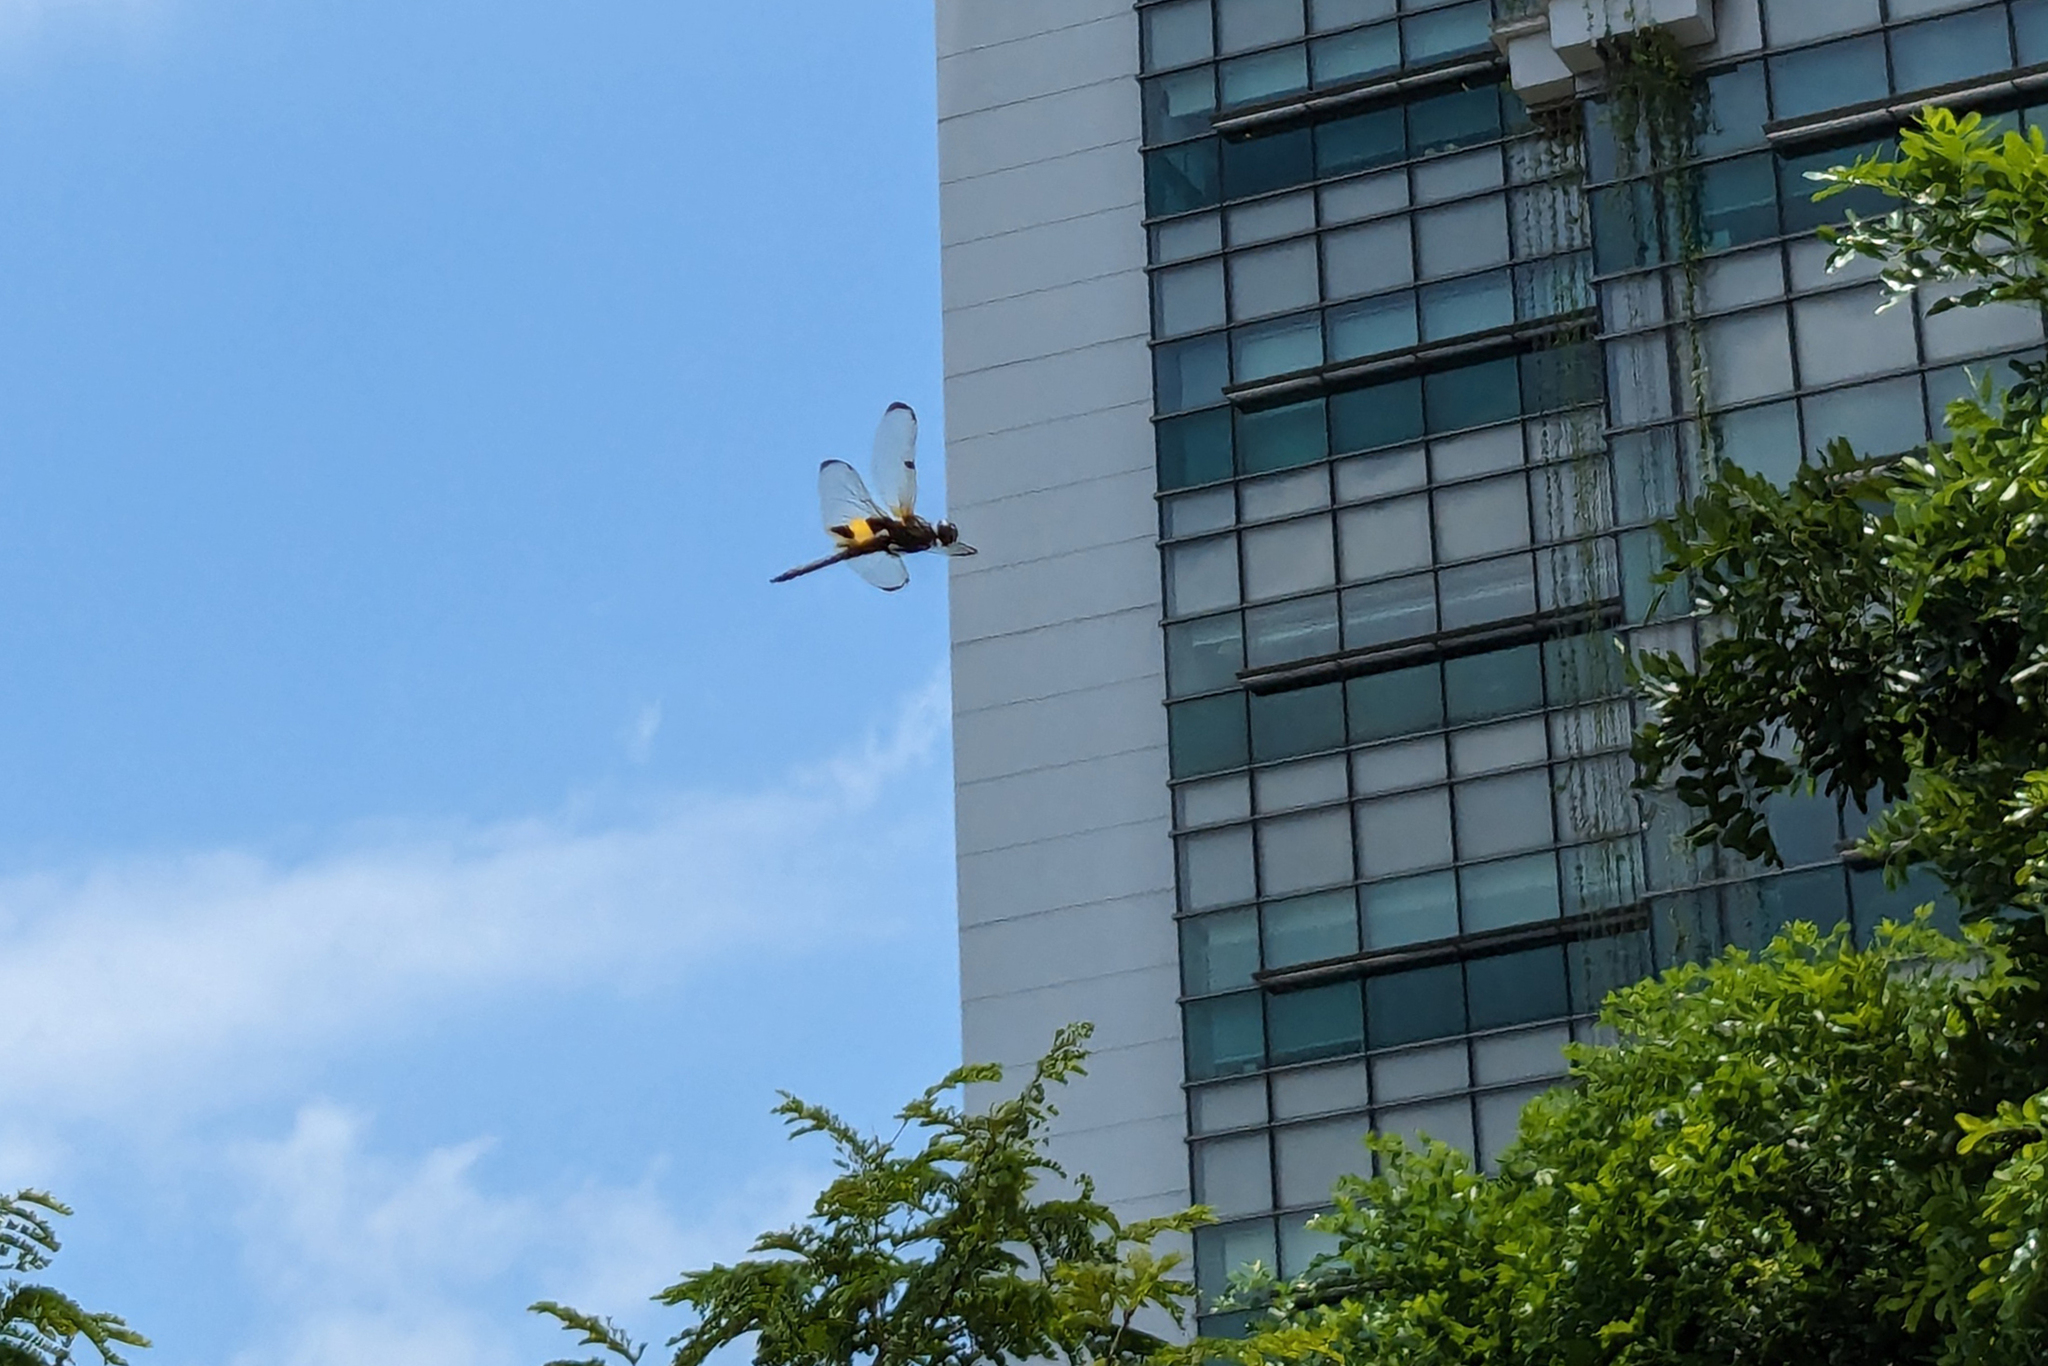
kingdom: Animalia
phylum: Arthropoda
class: Insecta
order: Odonata
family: Libellulidae
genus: Rhyothemis
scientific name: Rhyothemis phyllis
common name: Yellow-barred flutterer
